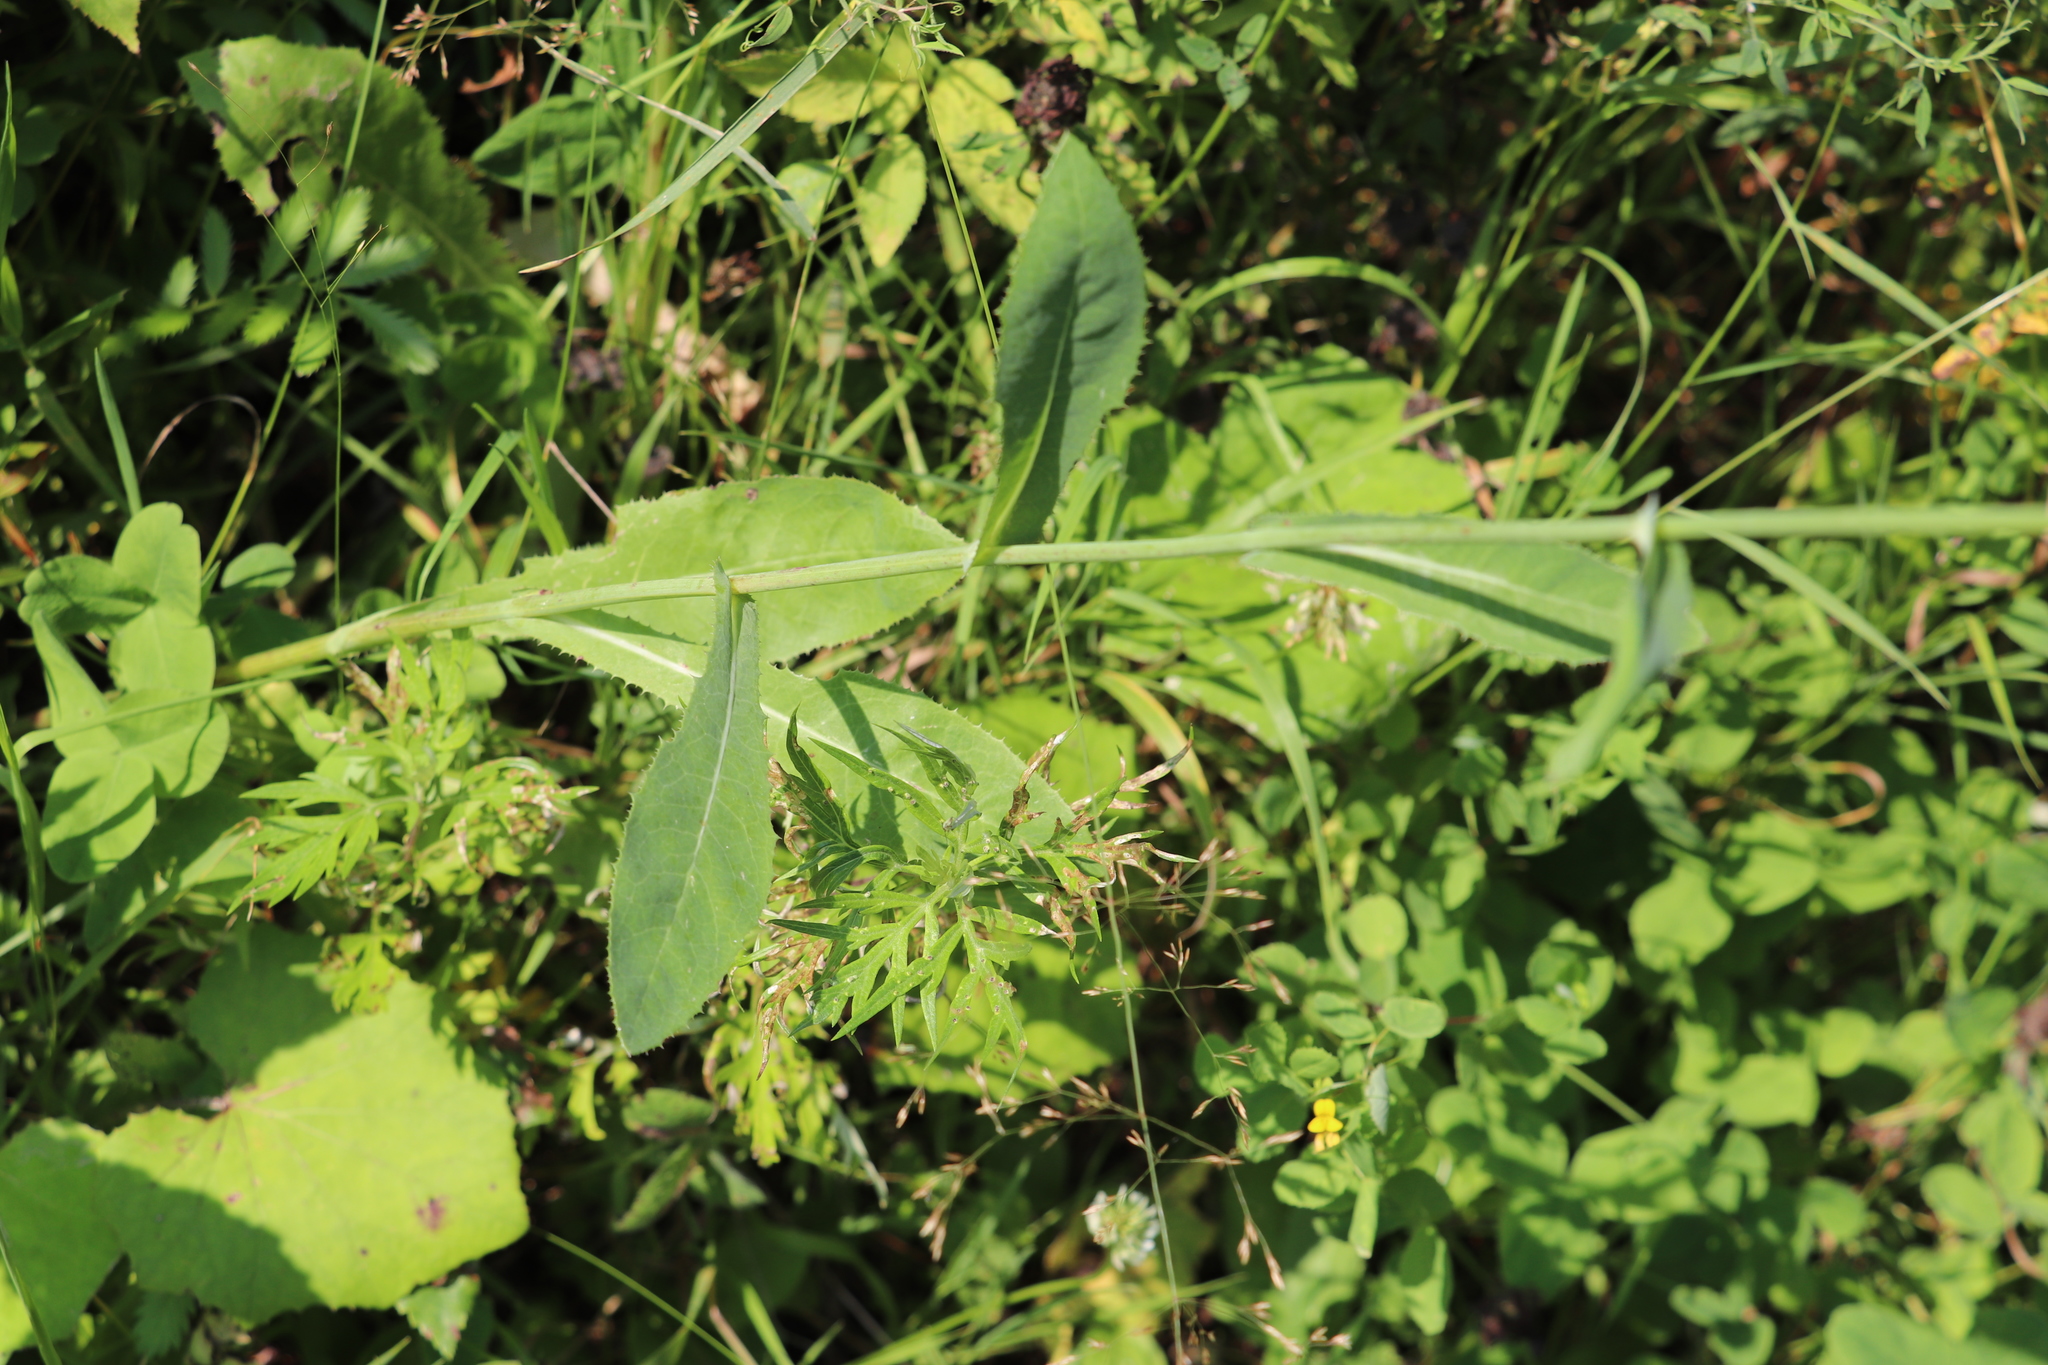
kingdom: Plantae
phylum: Tracheophyta
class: Magnoliopsida
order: Asterales
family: Asteraceae
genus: Sonchus
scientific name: Sonchus arvensis
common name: Perennial sow-thistle
